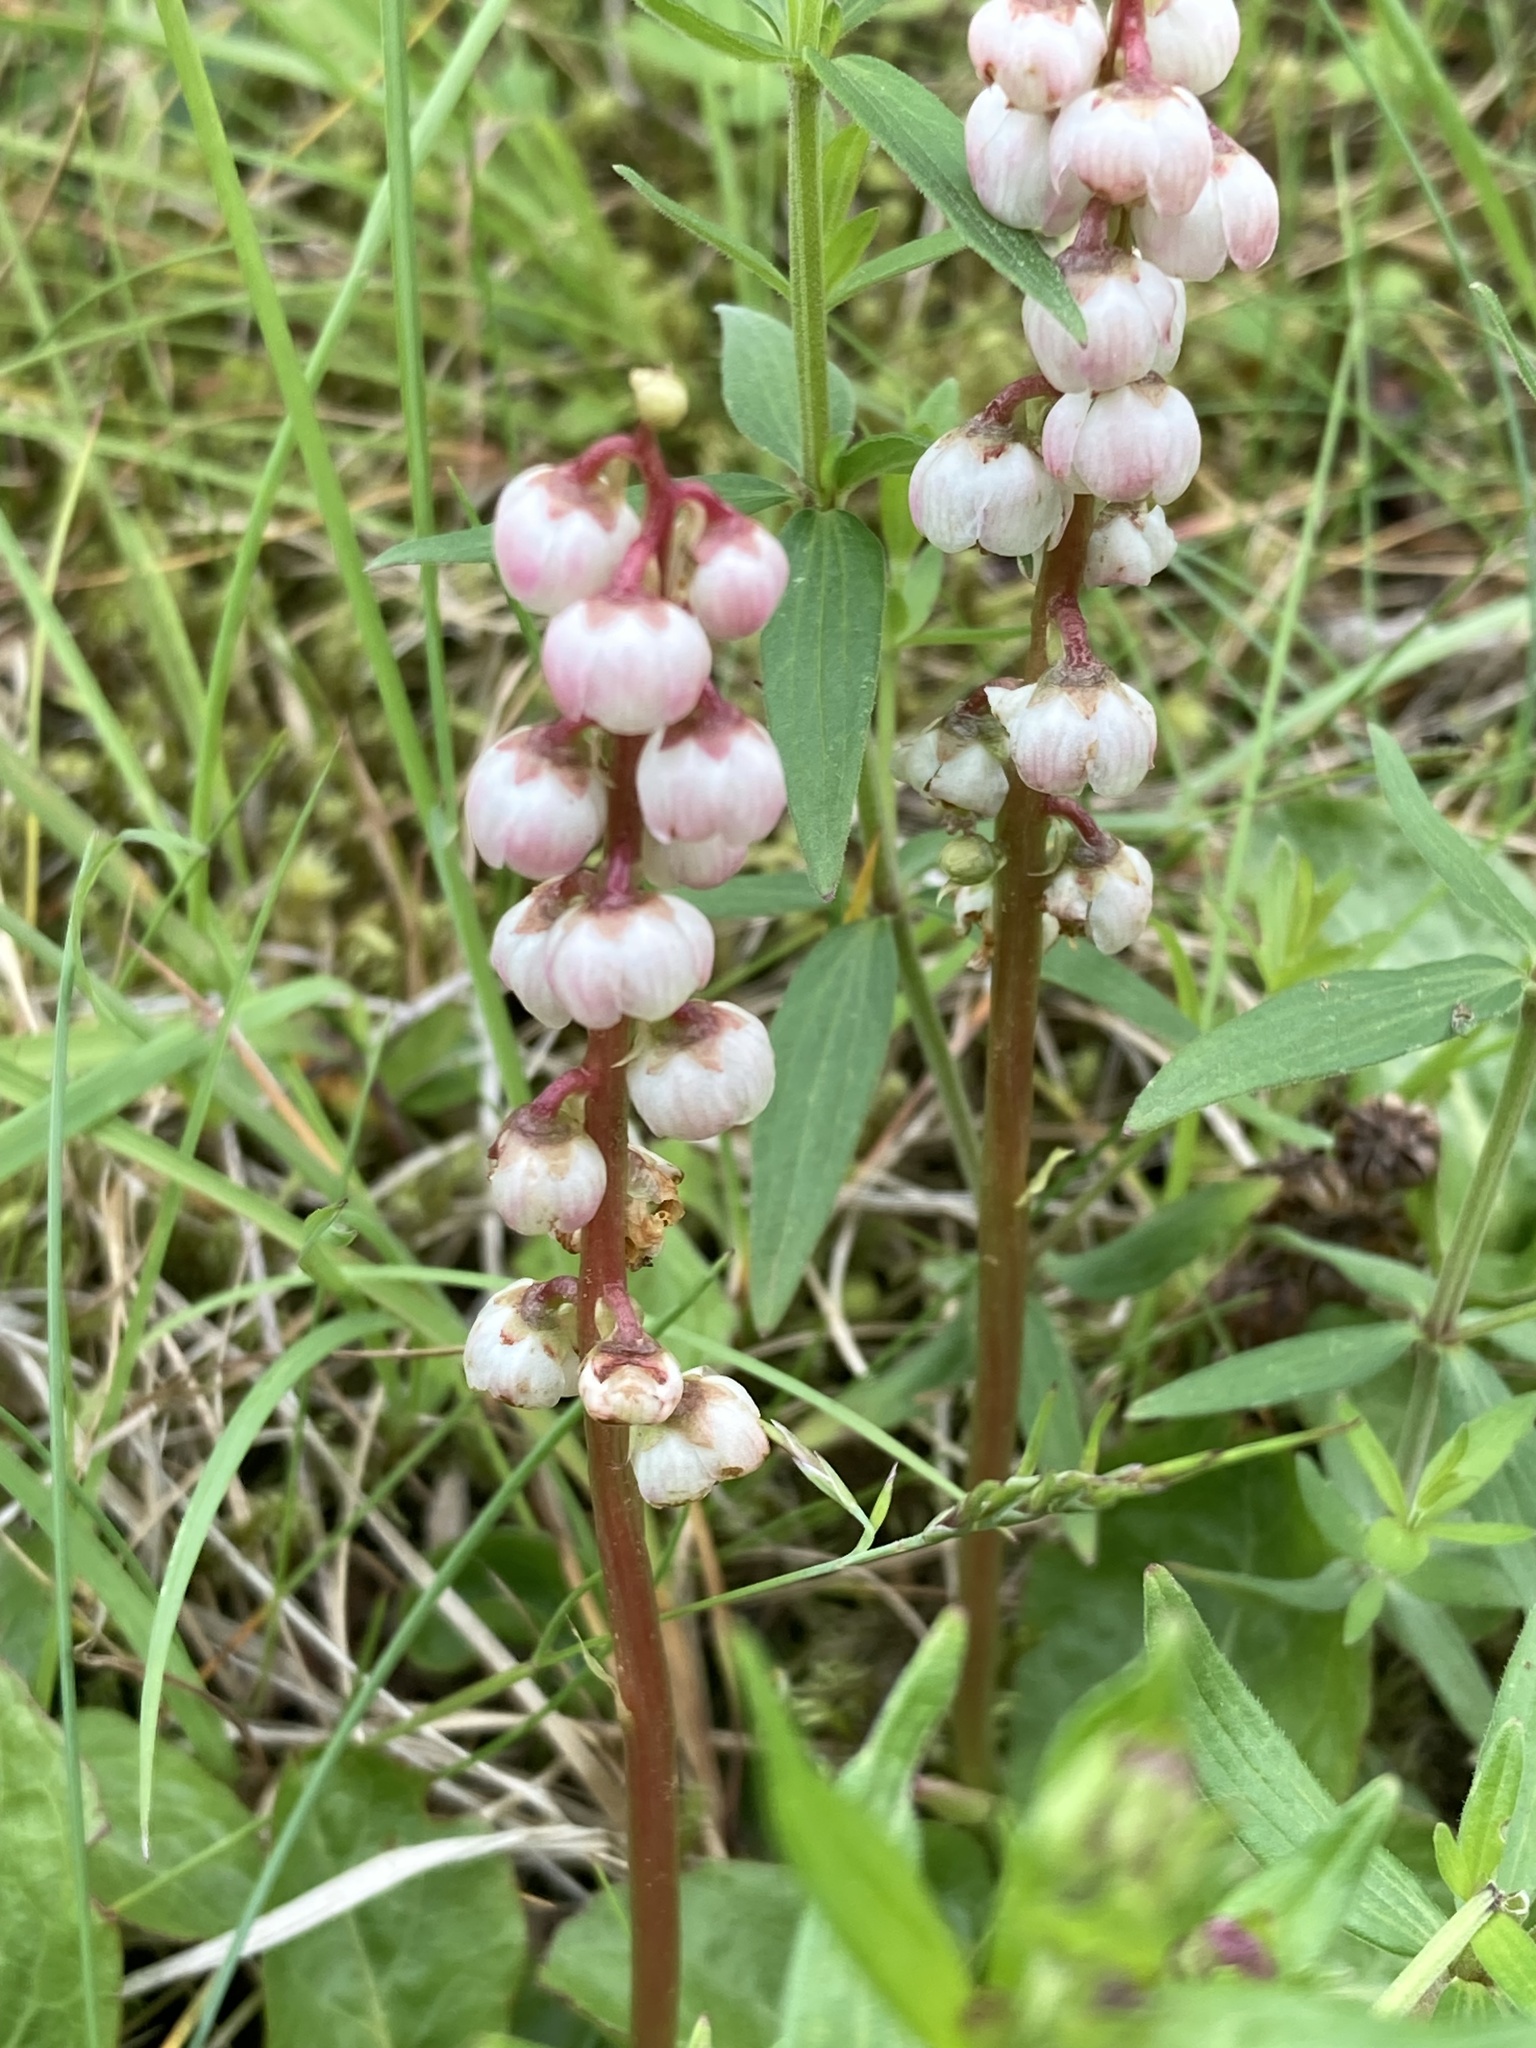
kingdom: Plantae
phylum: Tracheophyta
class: Magnoliopsida
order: Ericales
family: Ericaceae
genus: Pyrola
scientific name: Pyrola minor
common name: Common wintergreen
